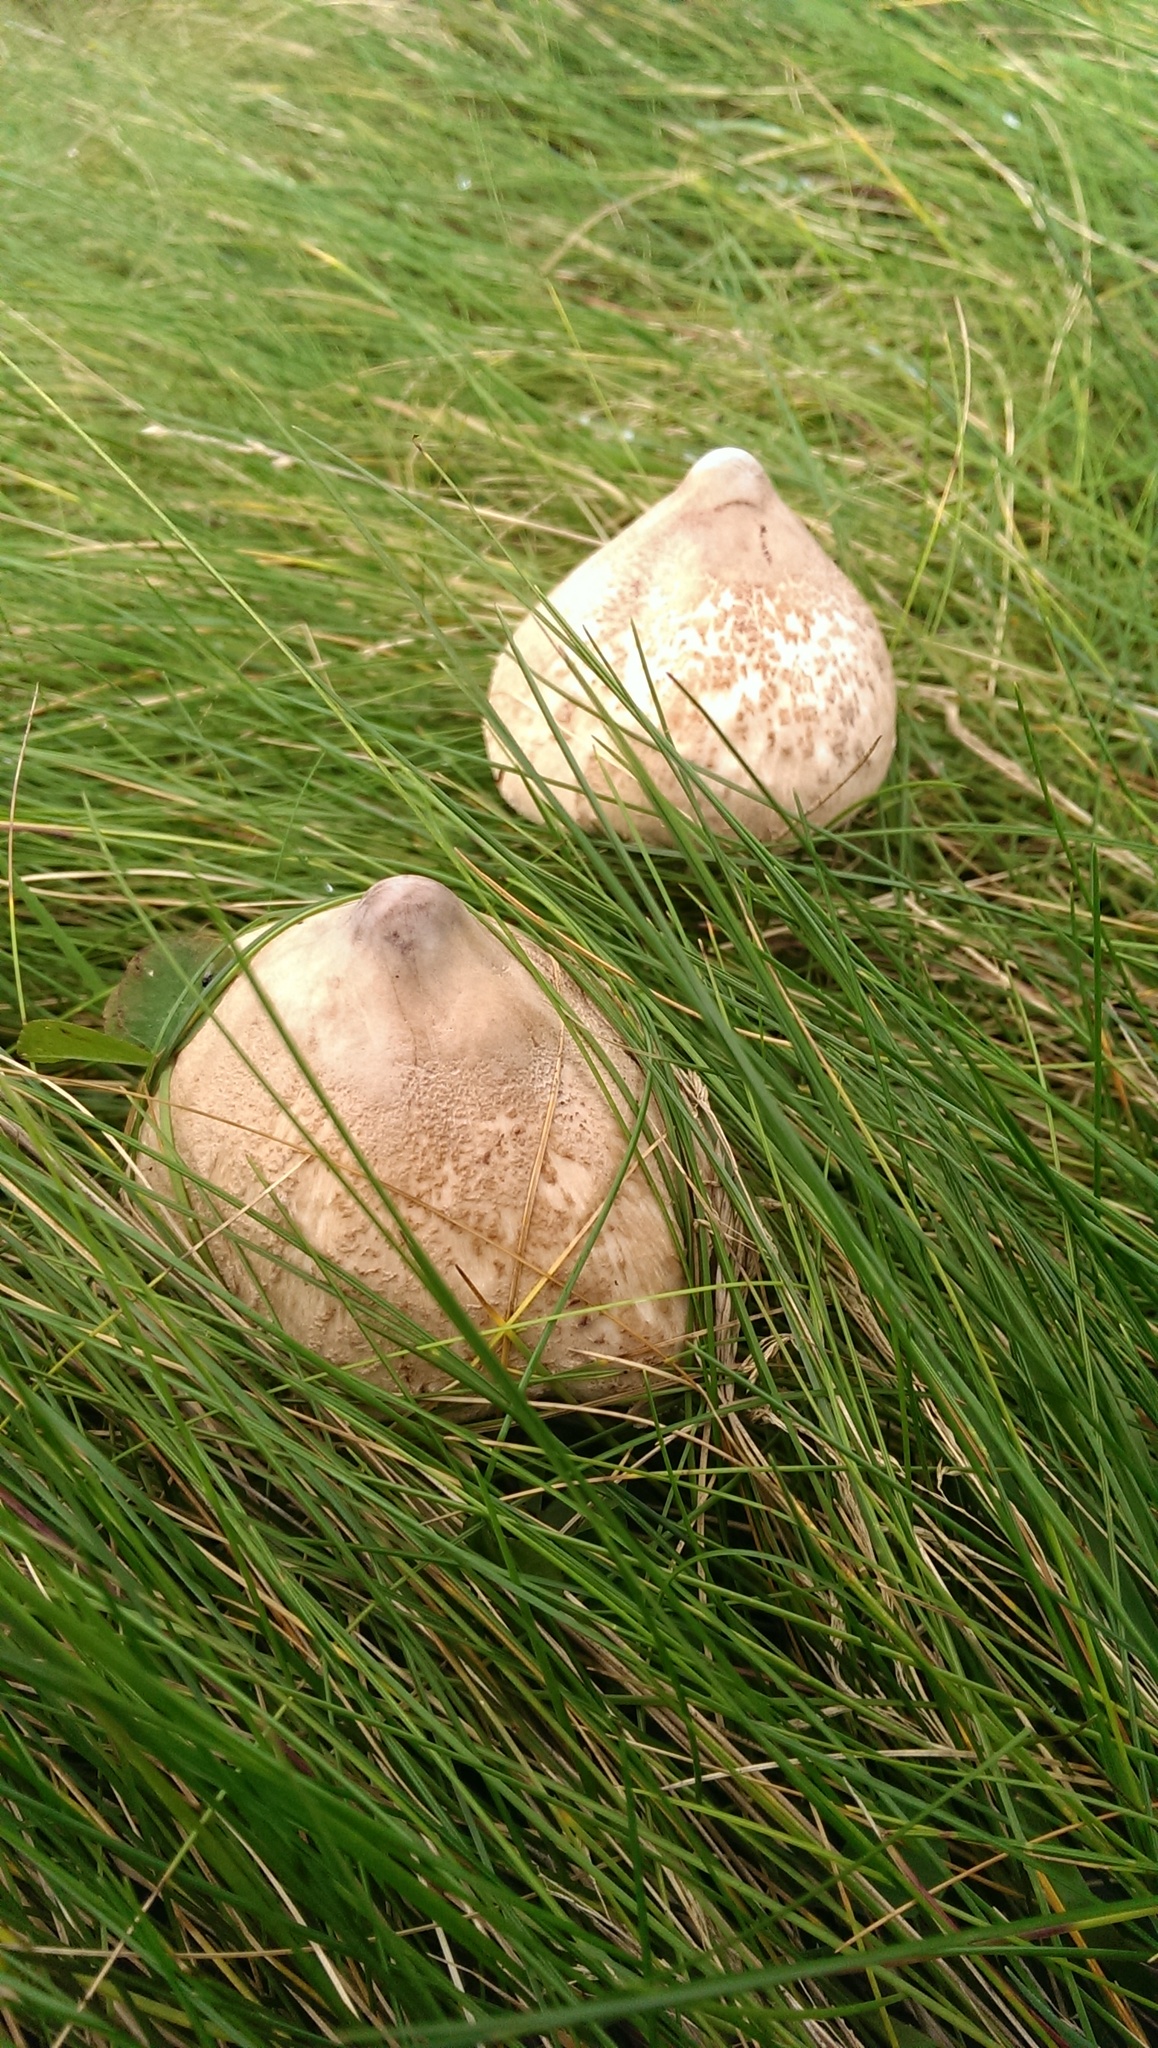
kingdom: Fungi
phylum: Basidiomycota
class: Agaricomycetes
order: Agaricales
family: Agaricaceae
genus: Macrolepiota
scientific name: Macrolepiota mastoidea
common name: Slender parasol
